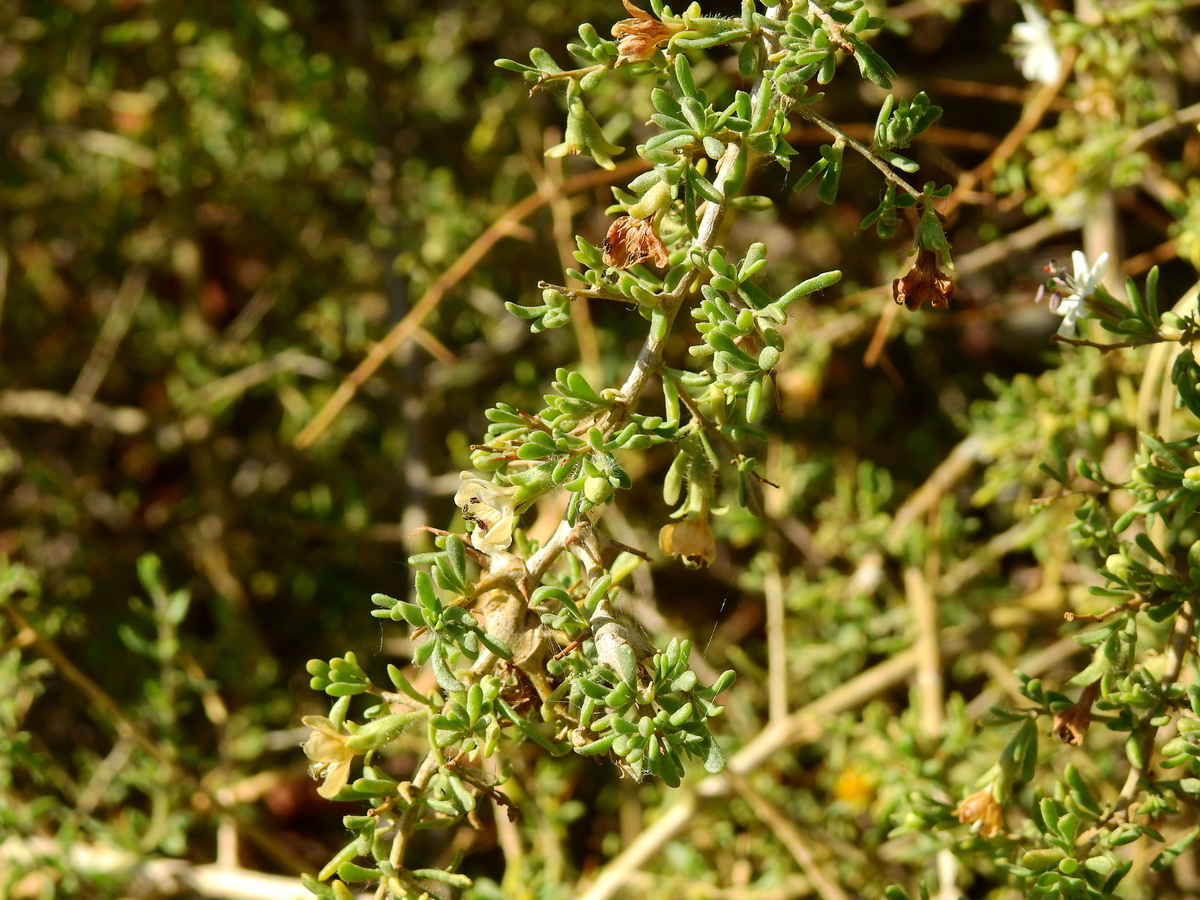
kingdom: Plantae
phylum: Tracheophyta
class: Magnoliopsida
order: Solanales
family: Solanaceae
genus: Lycium
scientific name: Lycium chilense
